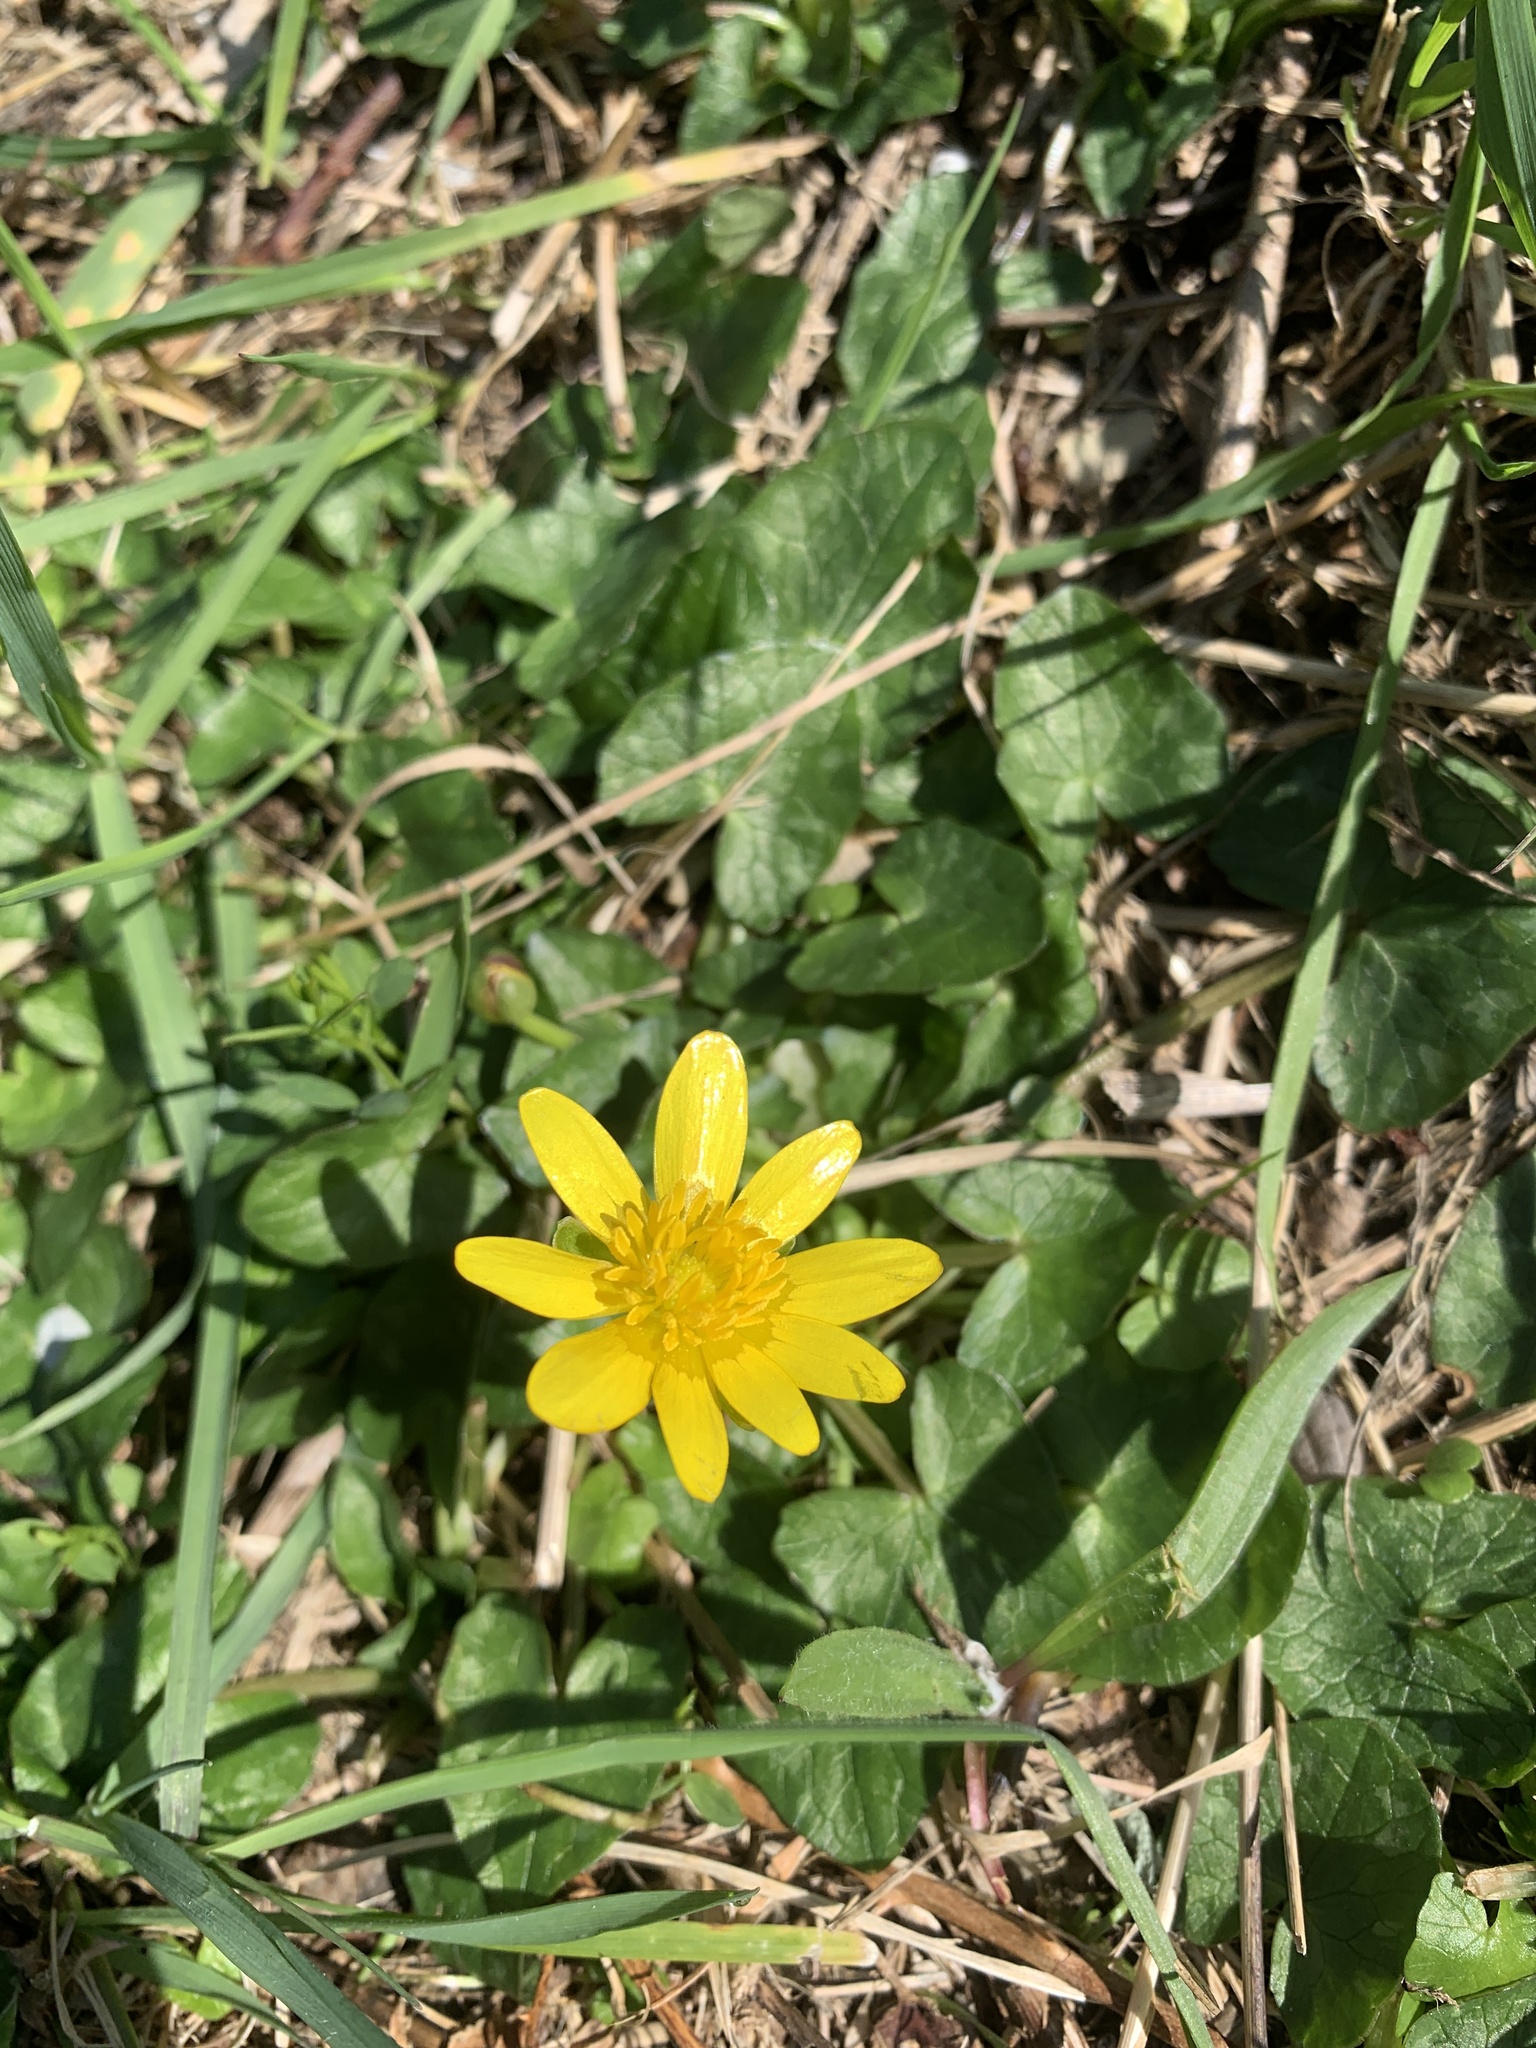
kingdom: Plantae
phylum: Tracheophyta
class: Magnoliopsida
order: Ranunculales
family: Ranunculaceae
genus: Ficaria
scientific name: Ficaria verna
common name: Lesser celandine
